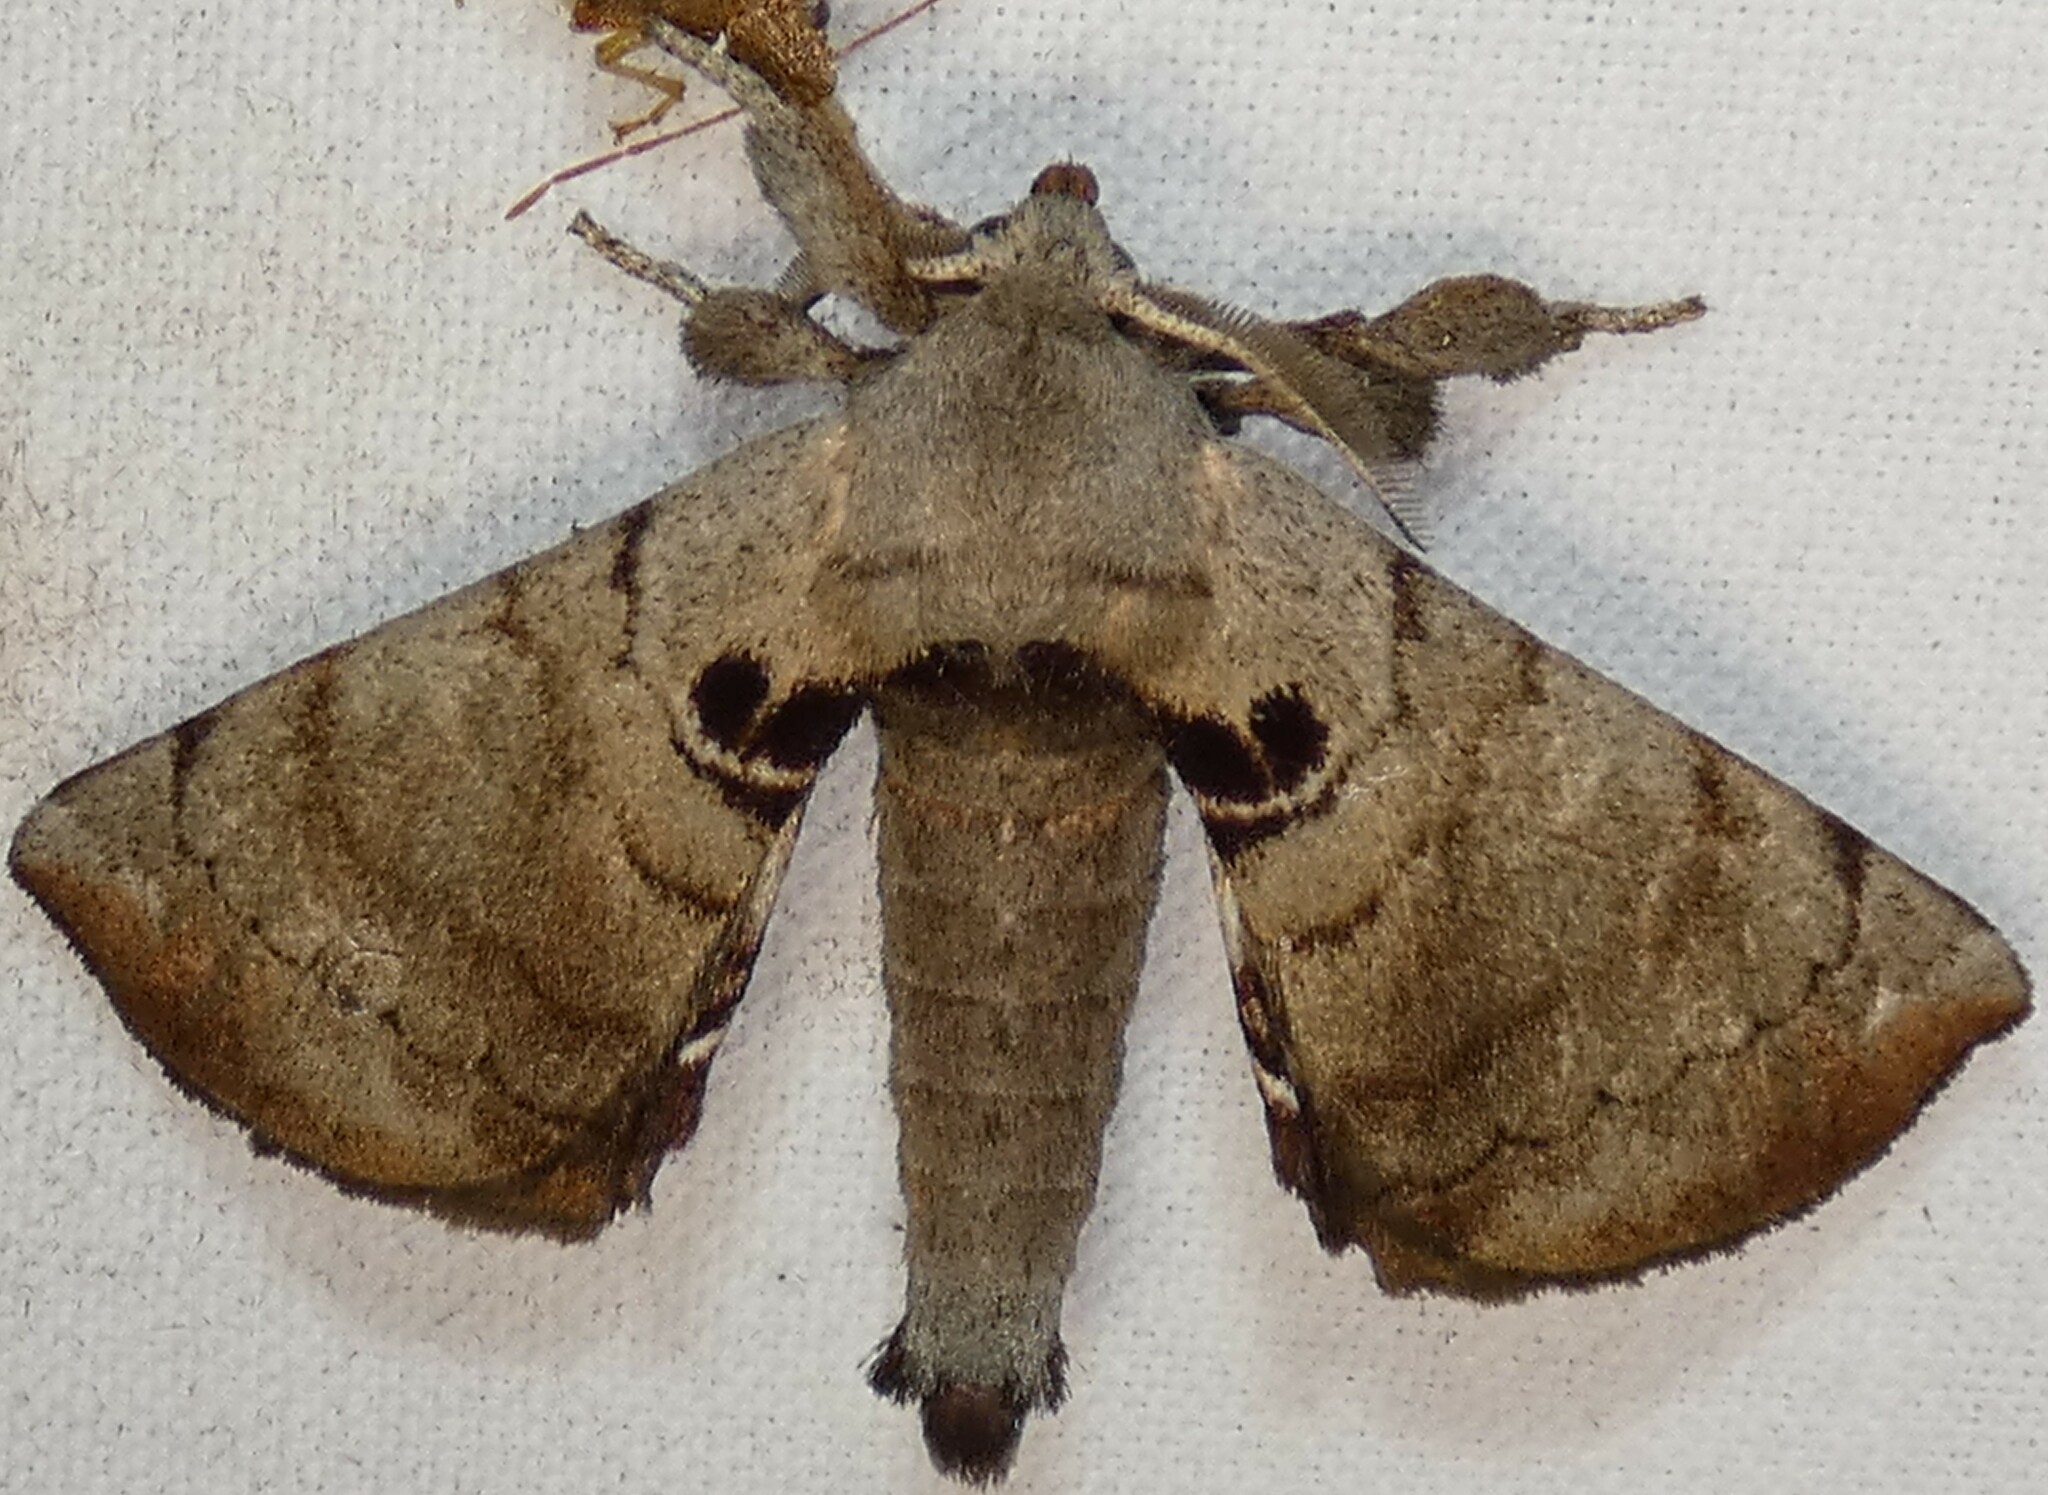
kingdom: Animalia
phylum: Arthropoda
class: Insecta
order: Lepidoptera
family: Apatelodidae
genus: Hygrochroa
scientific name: Hygrochroa Apatelodes torrefacta
